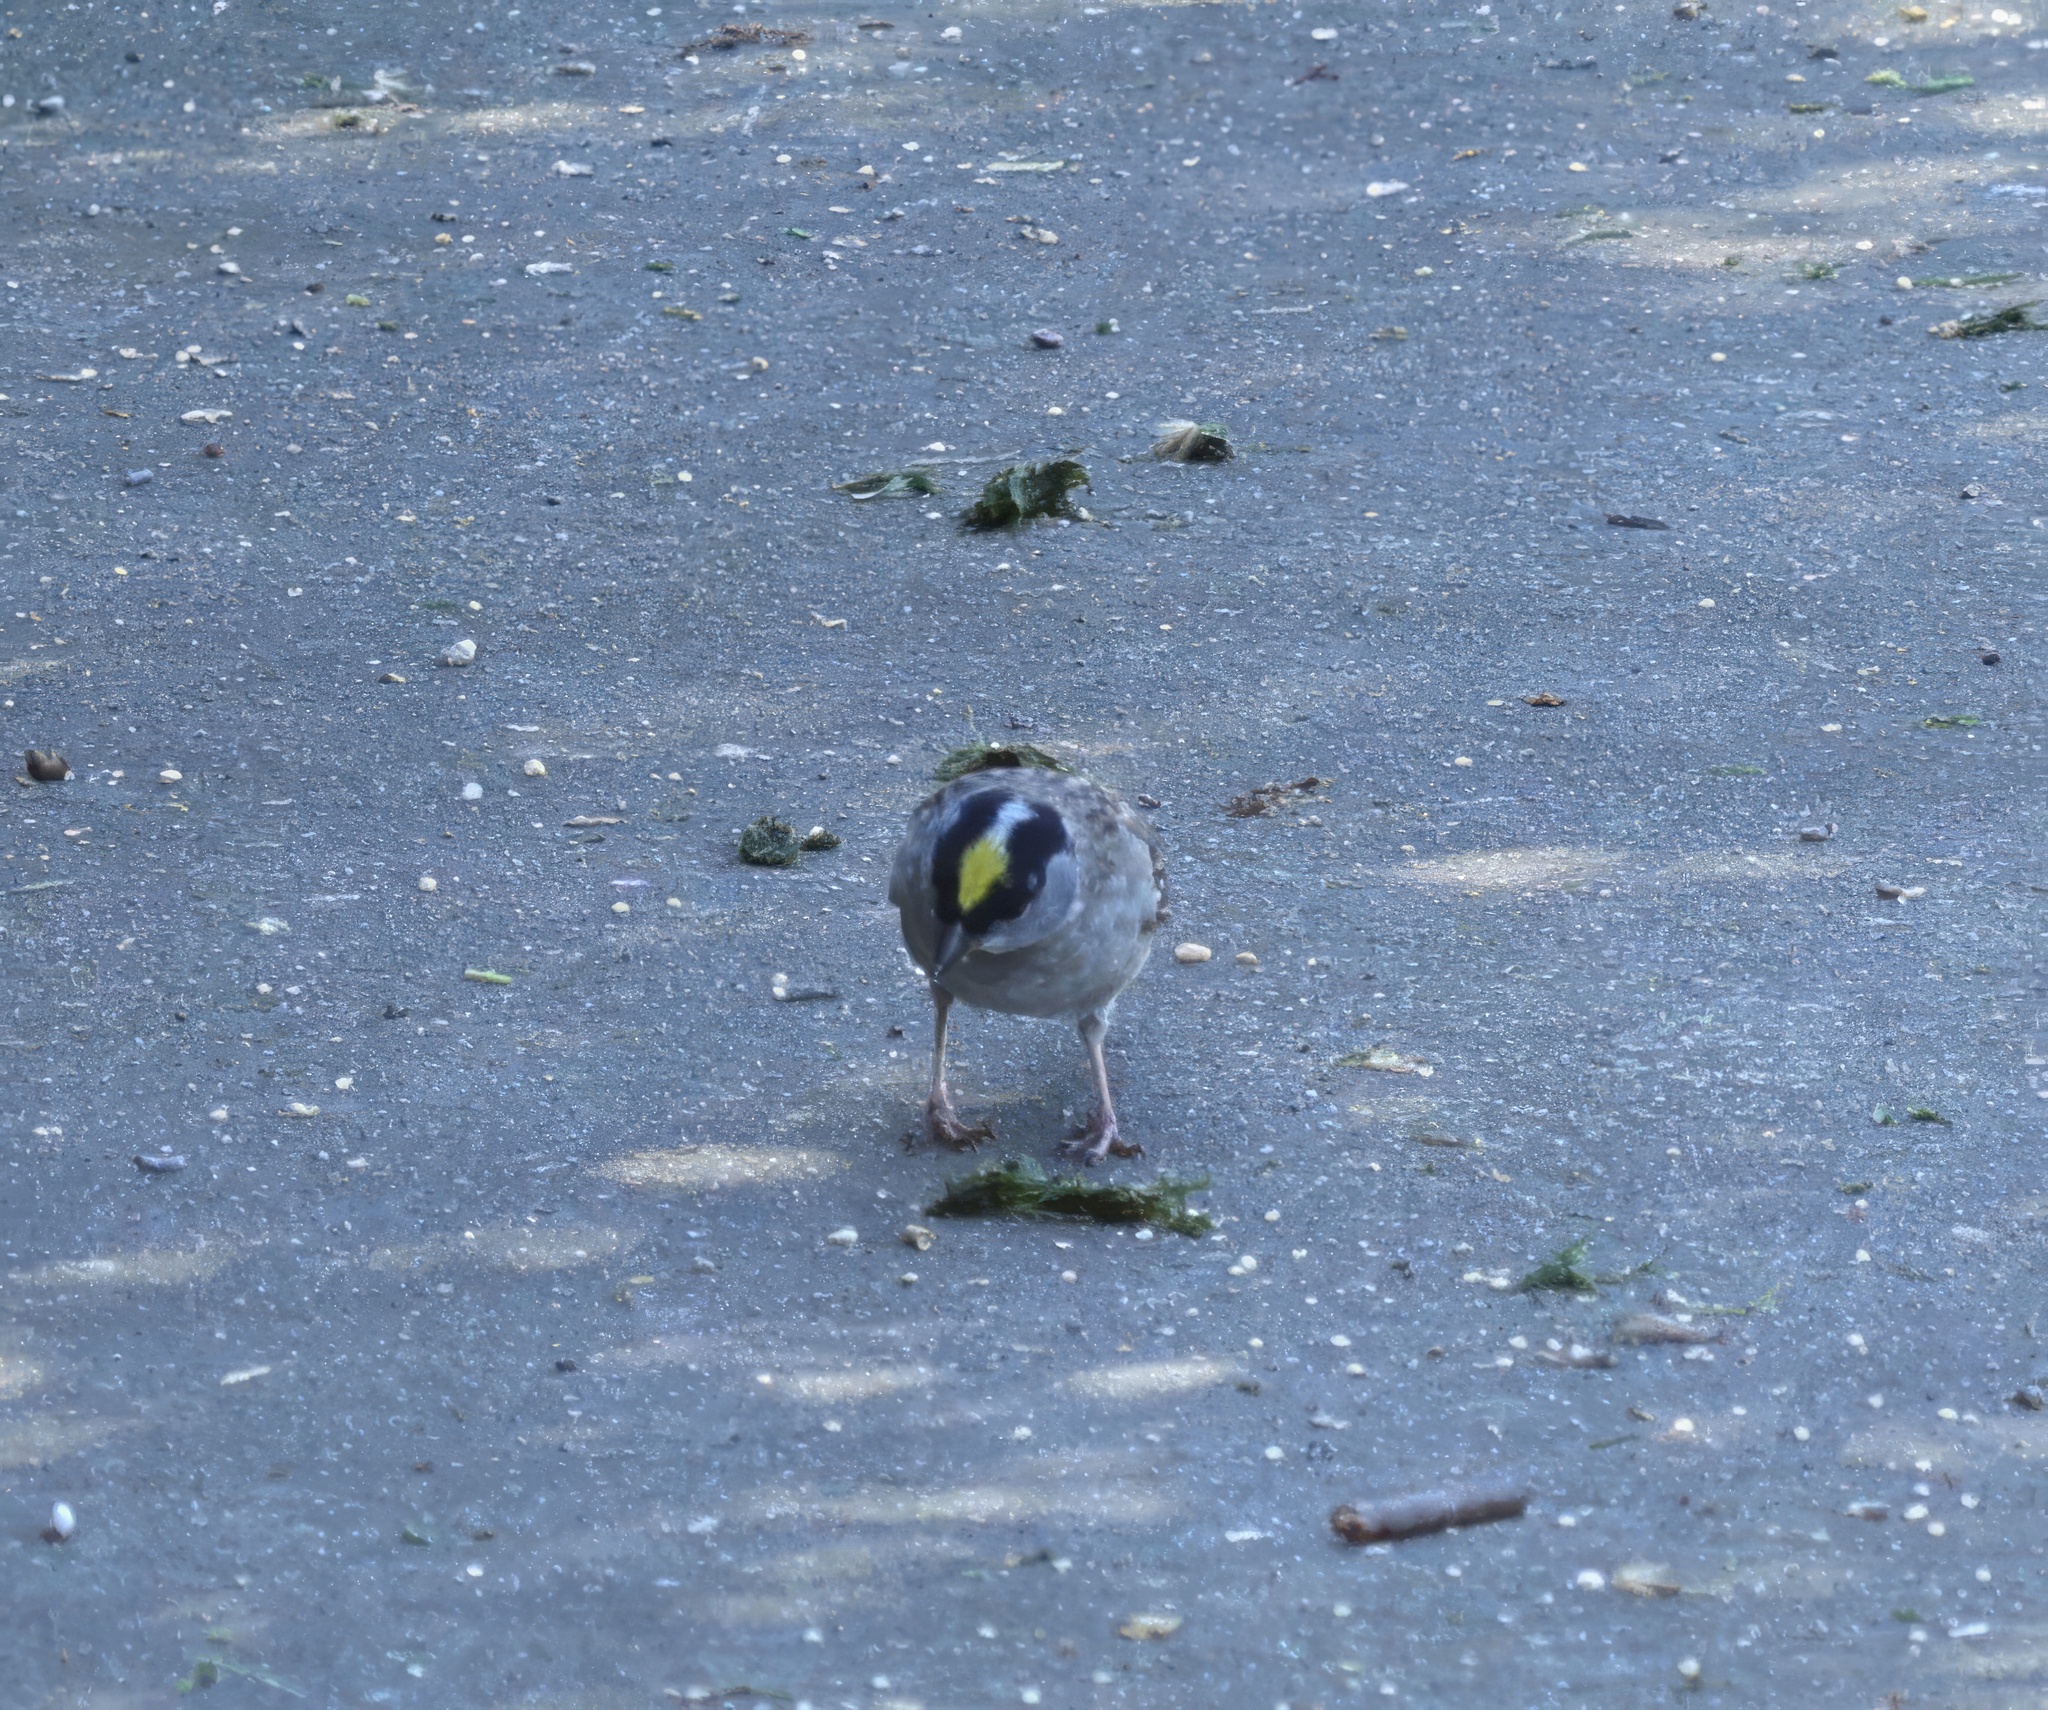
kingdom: Animalia
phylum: Chordata
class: Aves
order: Passeriformes
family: Passerellidae
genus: Zonotrichia
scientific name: Zonotrichia atricapilla
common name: Golden-crowned sparrow
